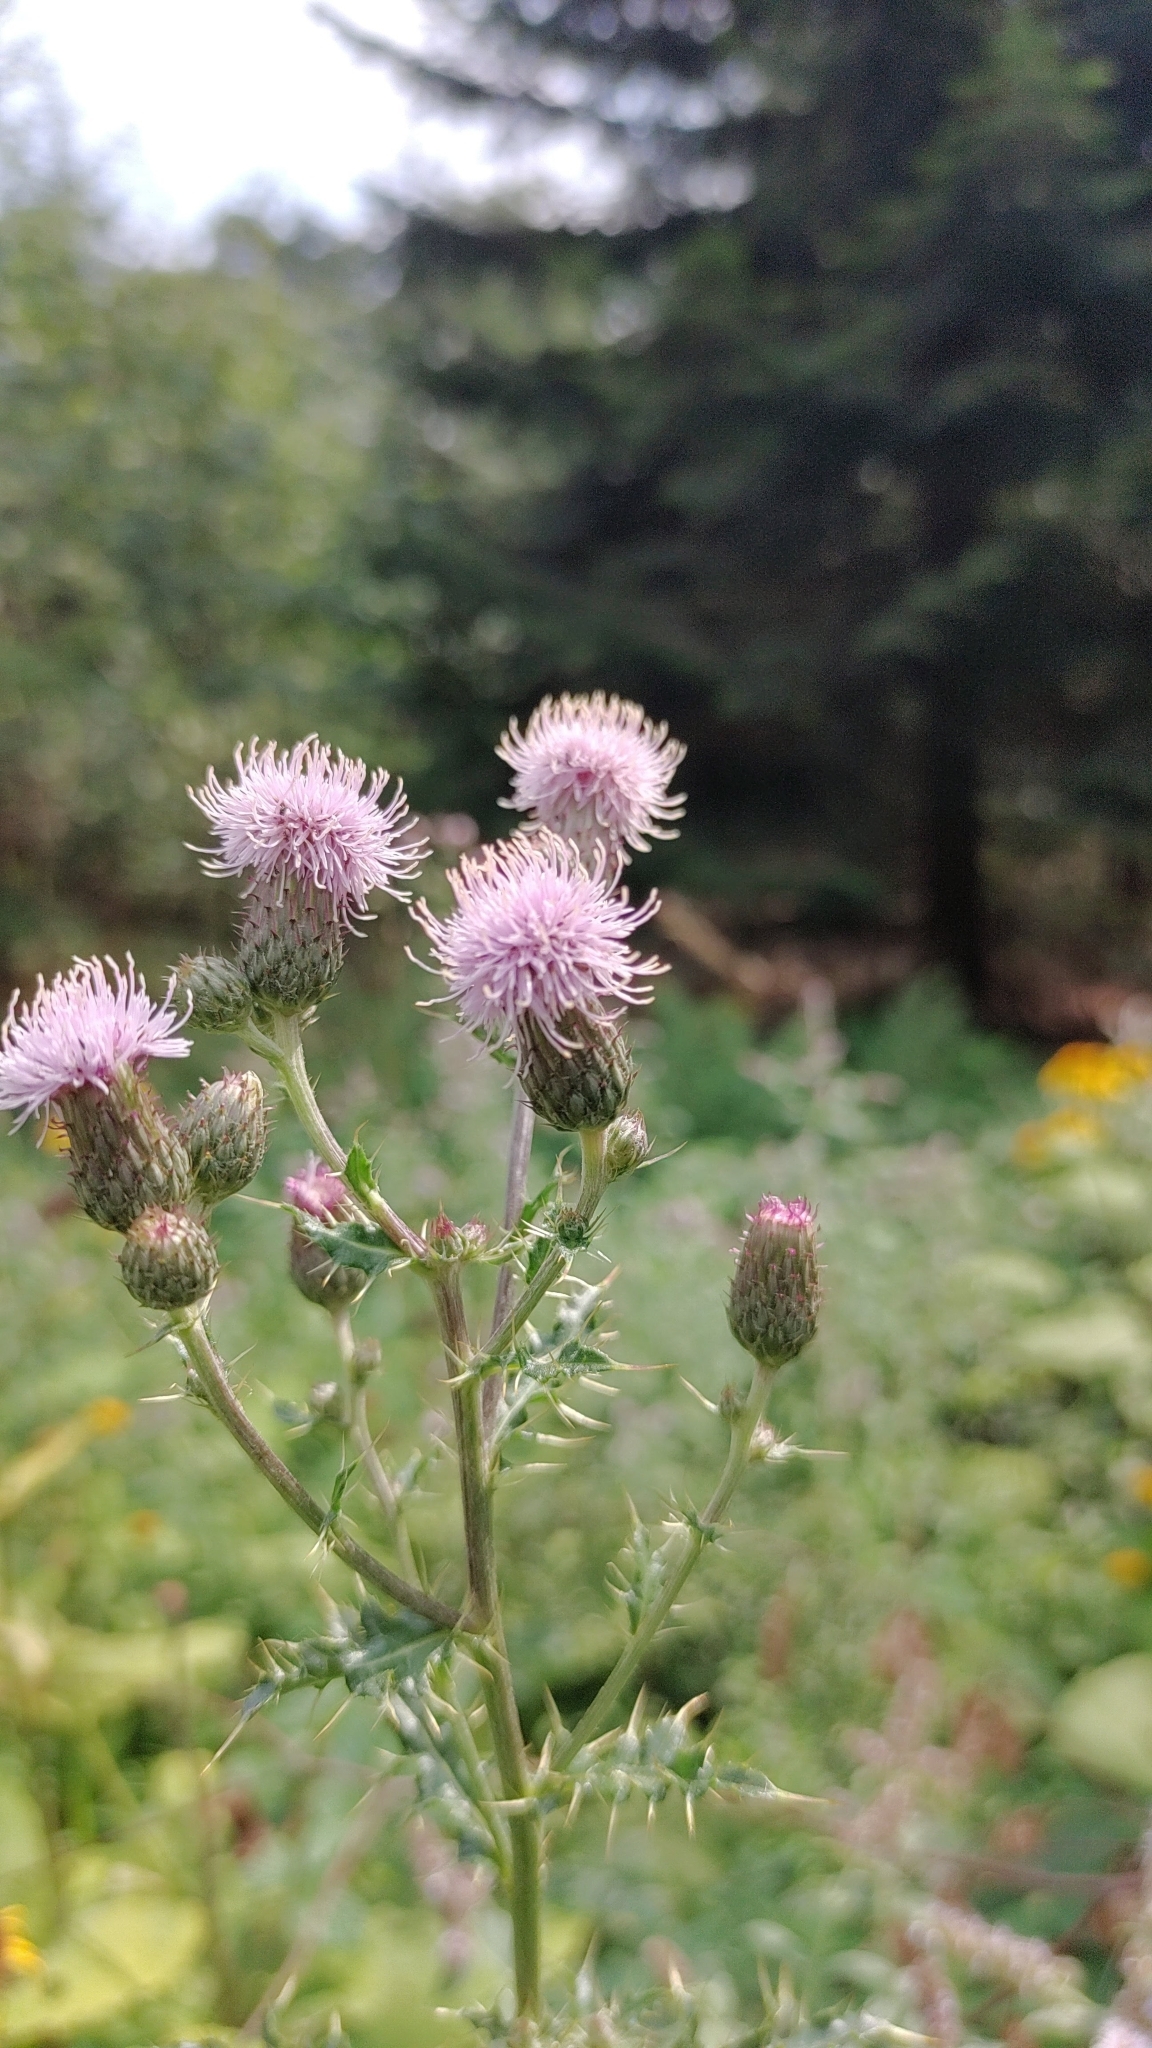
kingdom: Plantae
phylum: Tracheophyta
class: Magnoliopsida
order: Asterales
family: Asteraceae
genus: Cirsium
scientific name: Cirsium arvense
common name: Creeping thistle
